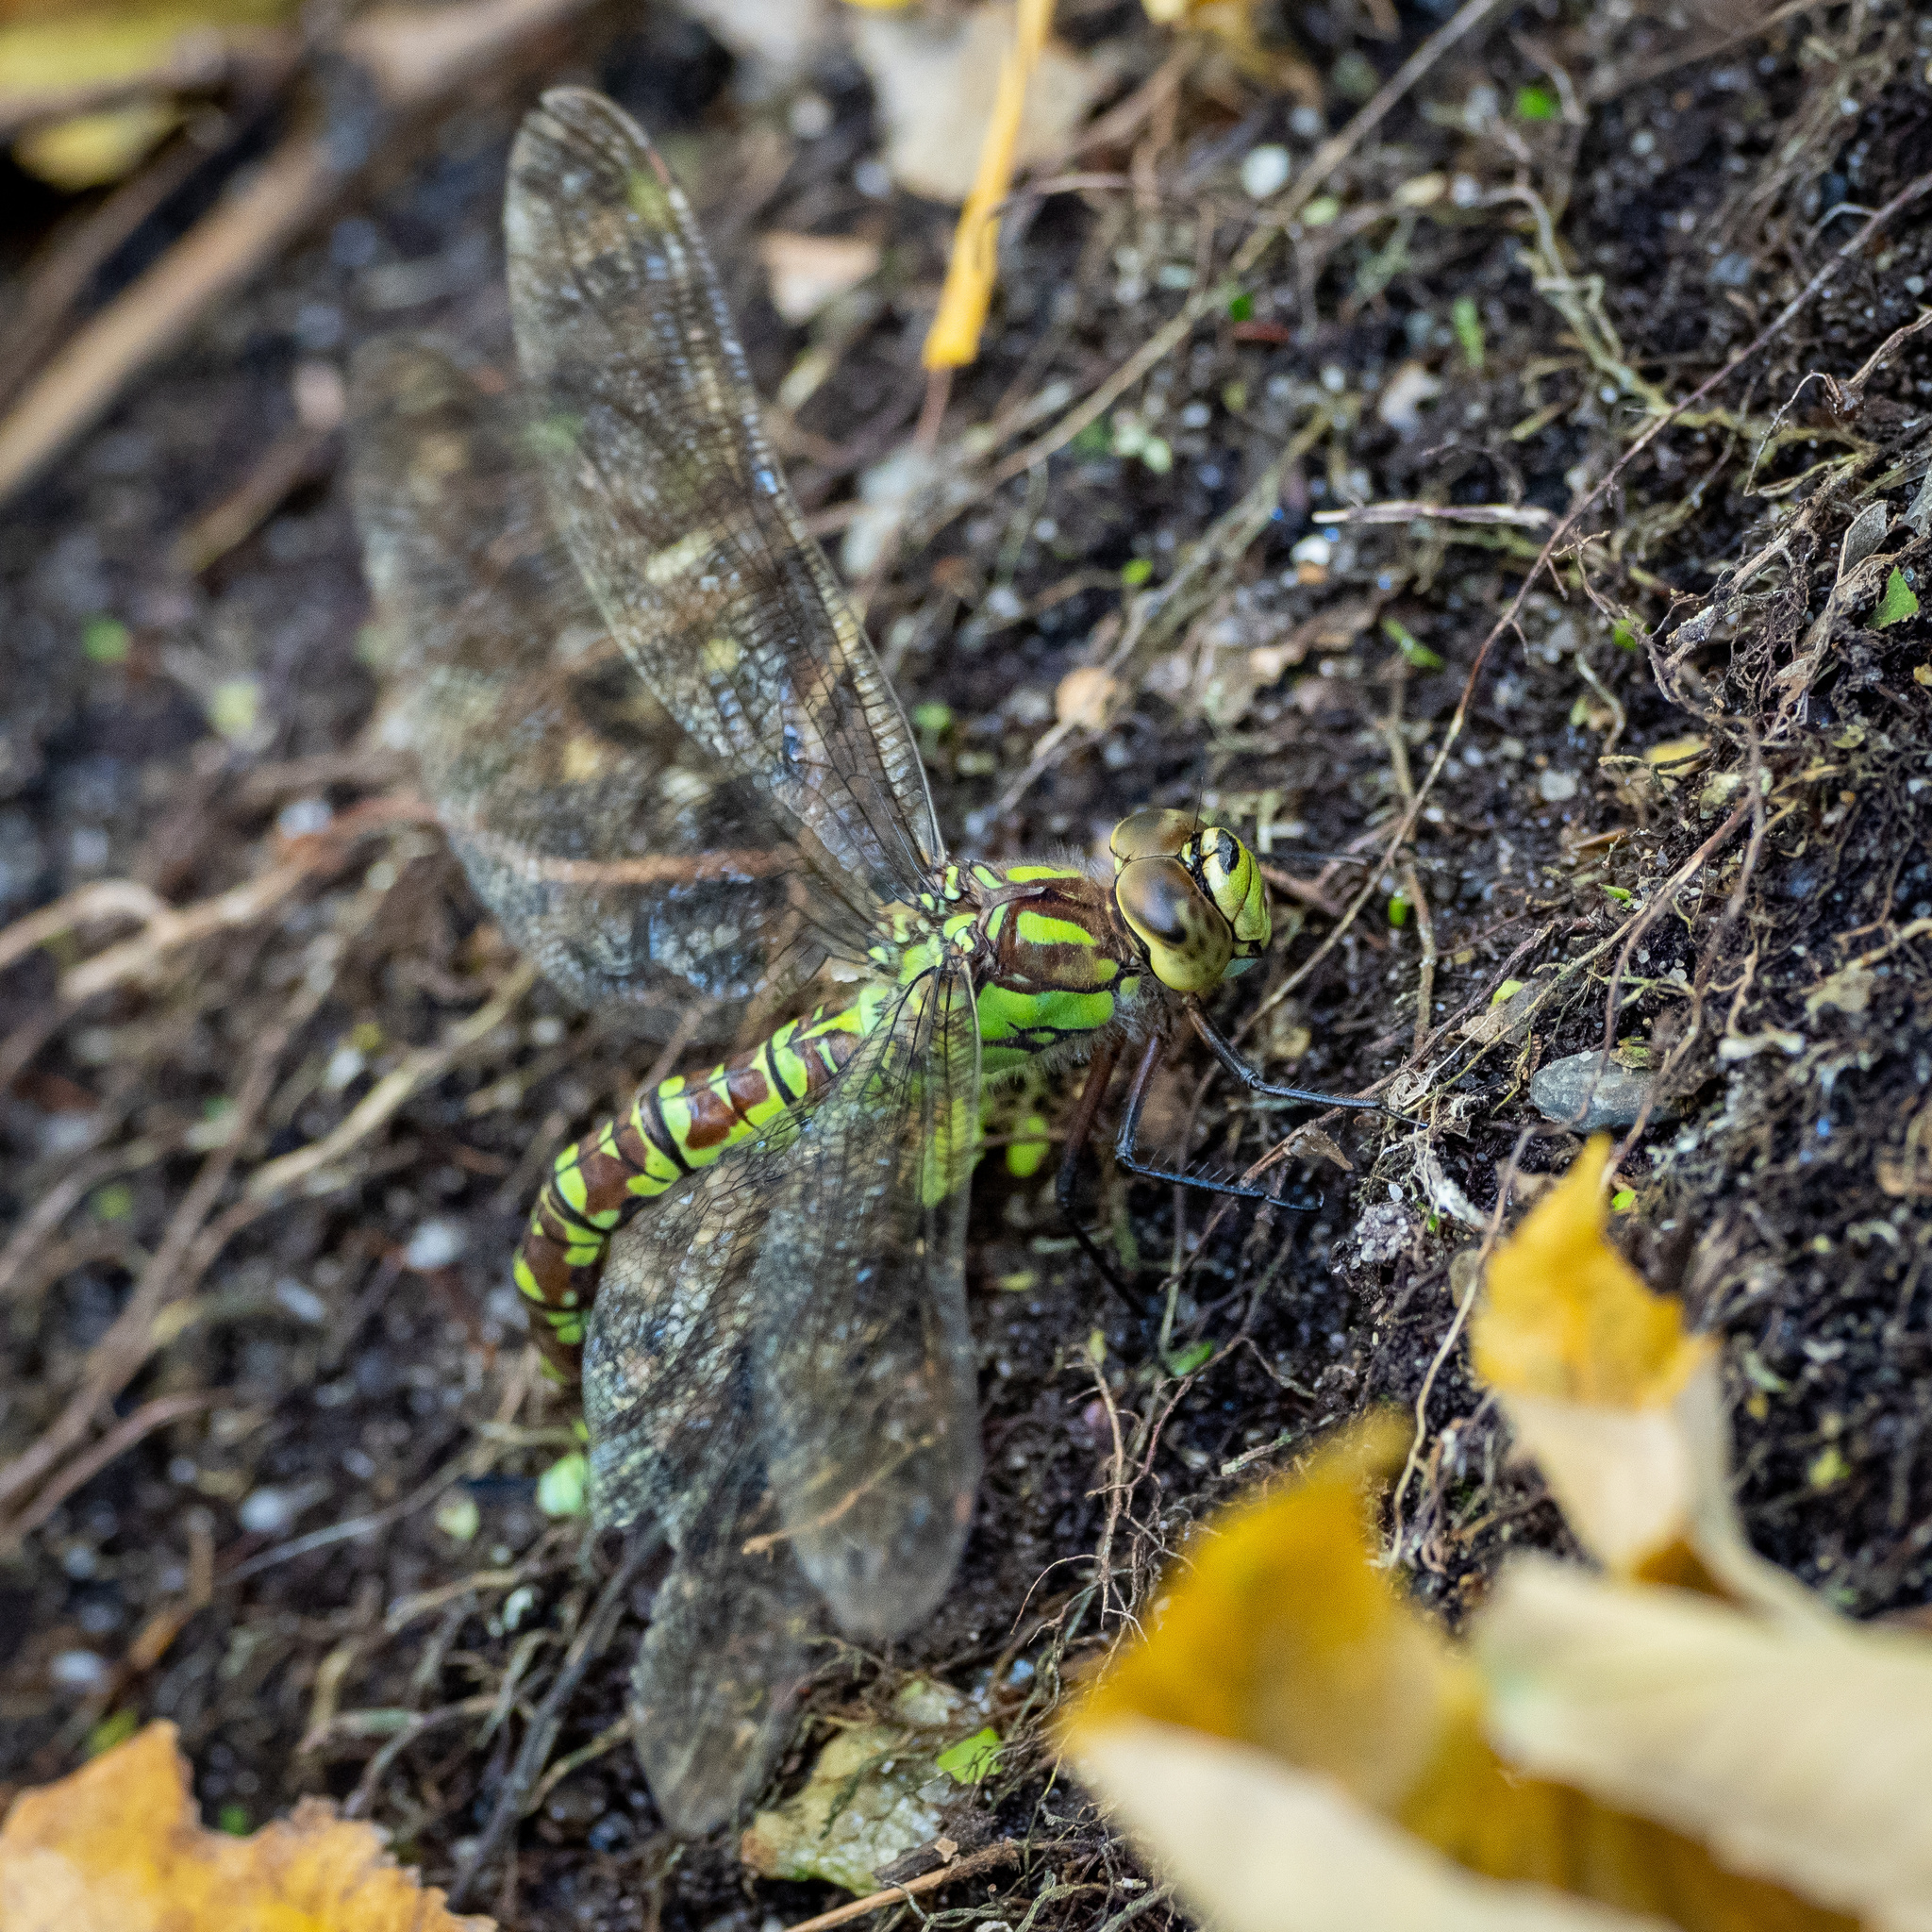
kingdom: Animalia
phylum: Arthropoda
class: Insecta
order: Odonata
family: Aeshnidae
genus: Aeshna
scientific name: Aeshna cyanea
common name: Southern hawker
